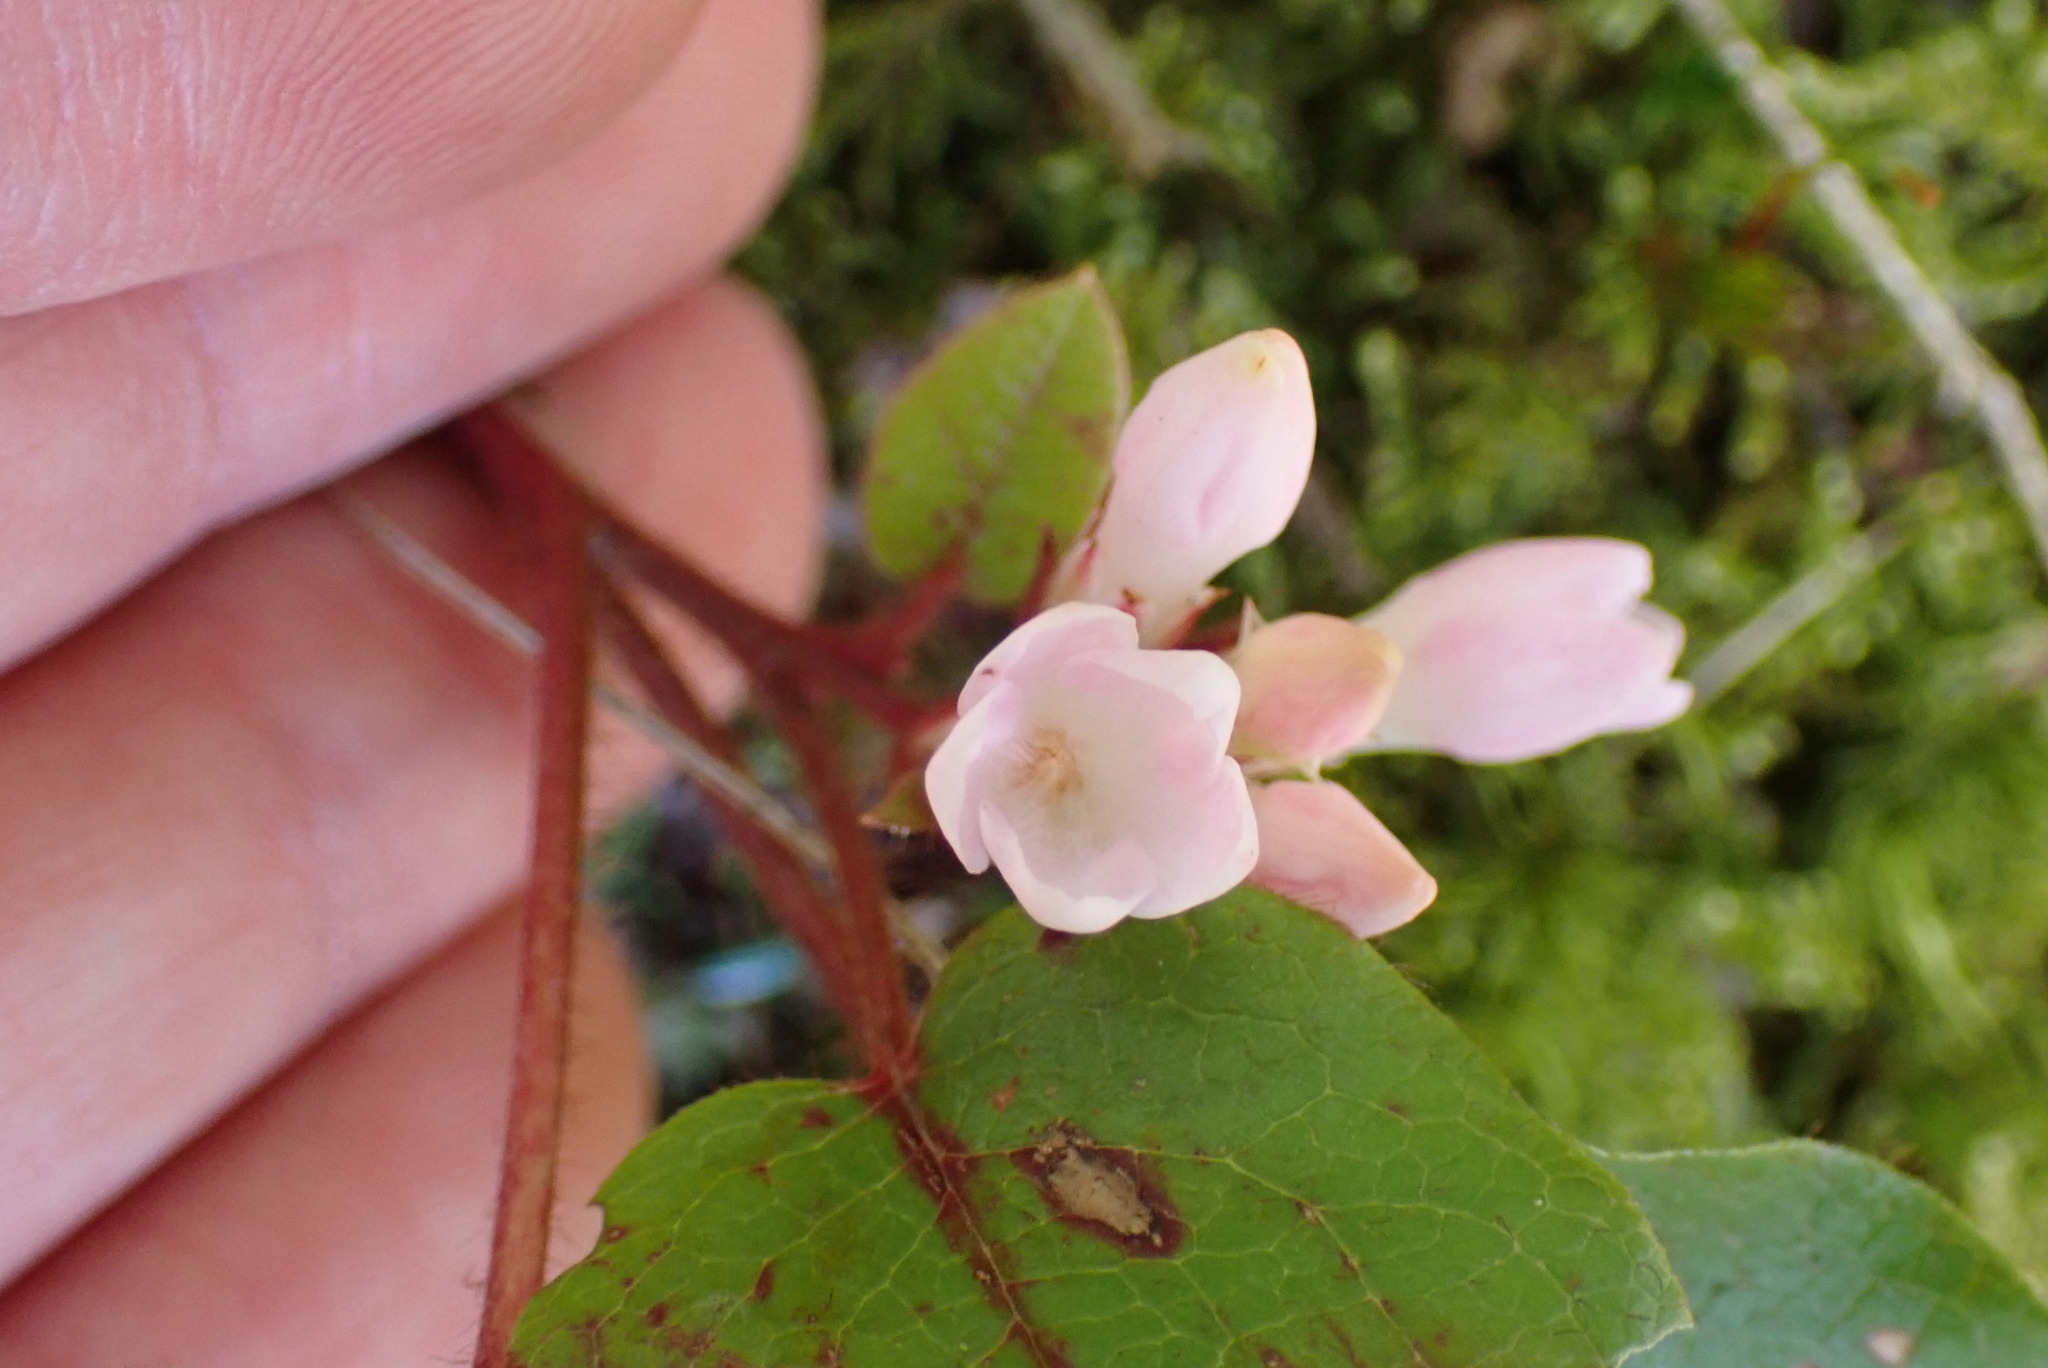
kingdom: Plantae
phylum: Tracheophyta
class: Magnoliopsida
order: Ericales
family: Ericaceae
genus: Epigaea
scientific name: Epigaea repens
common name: Gravelroot
